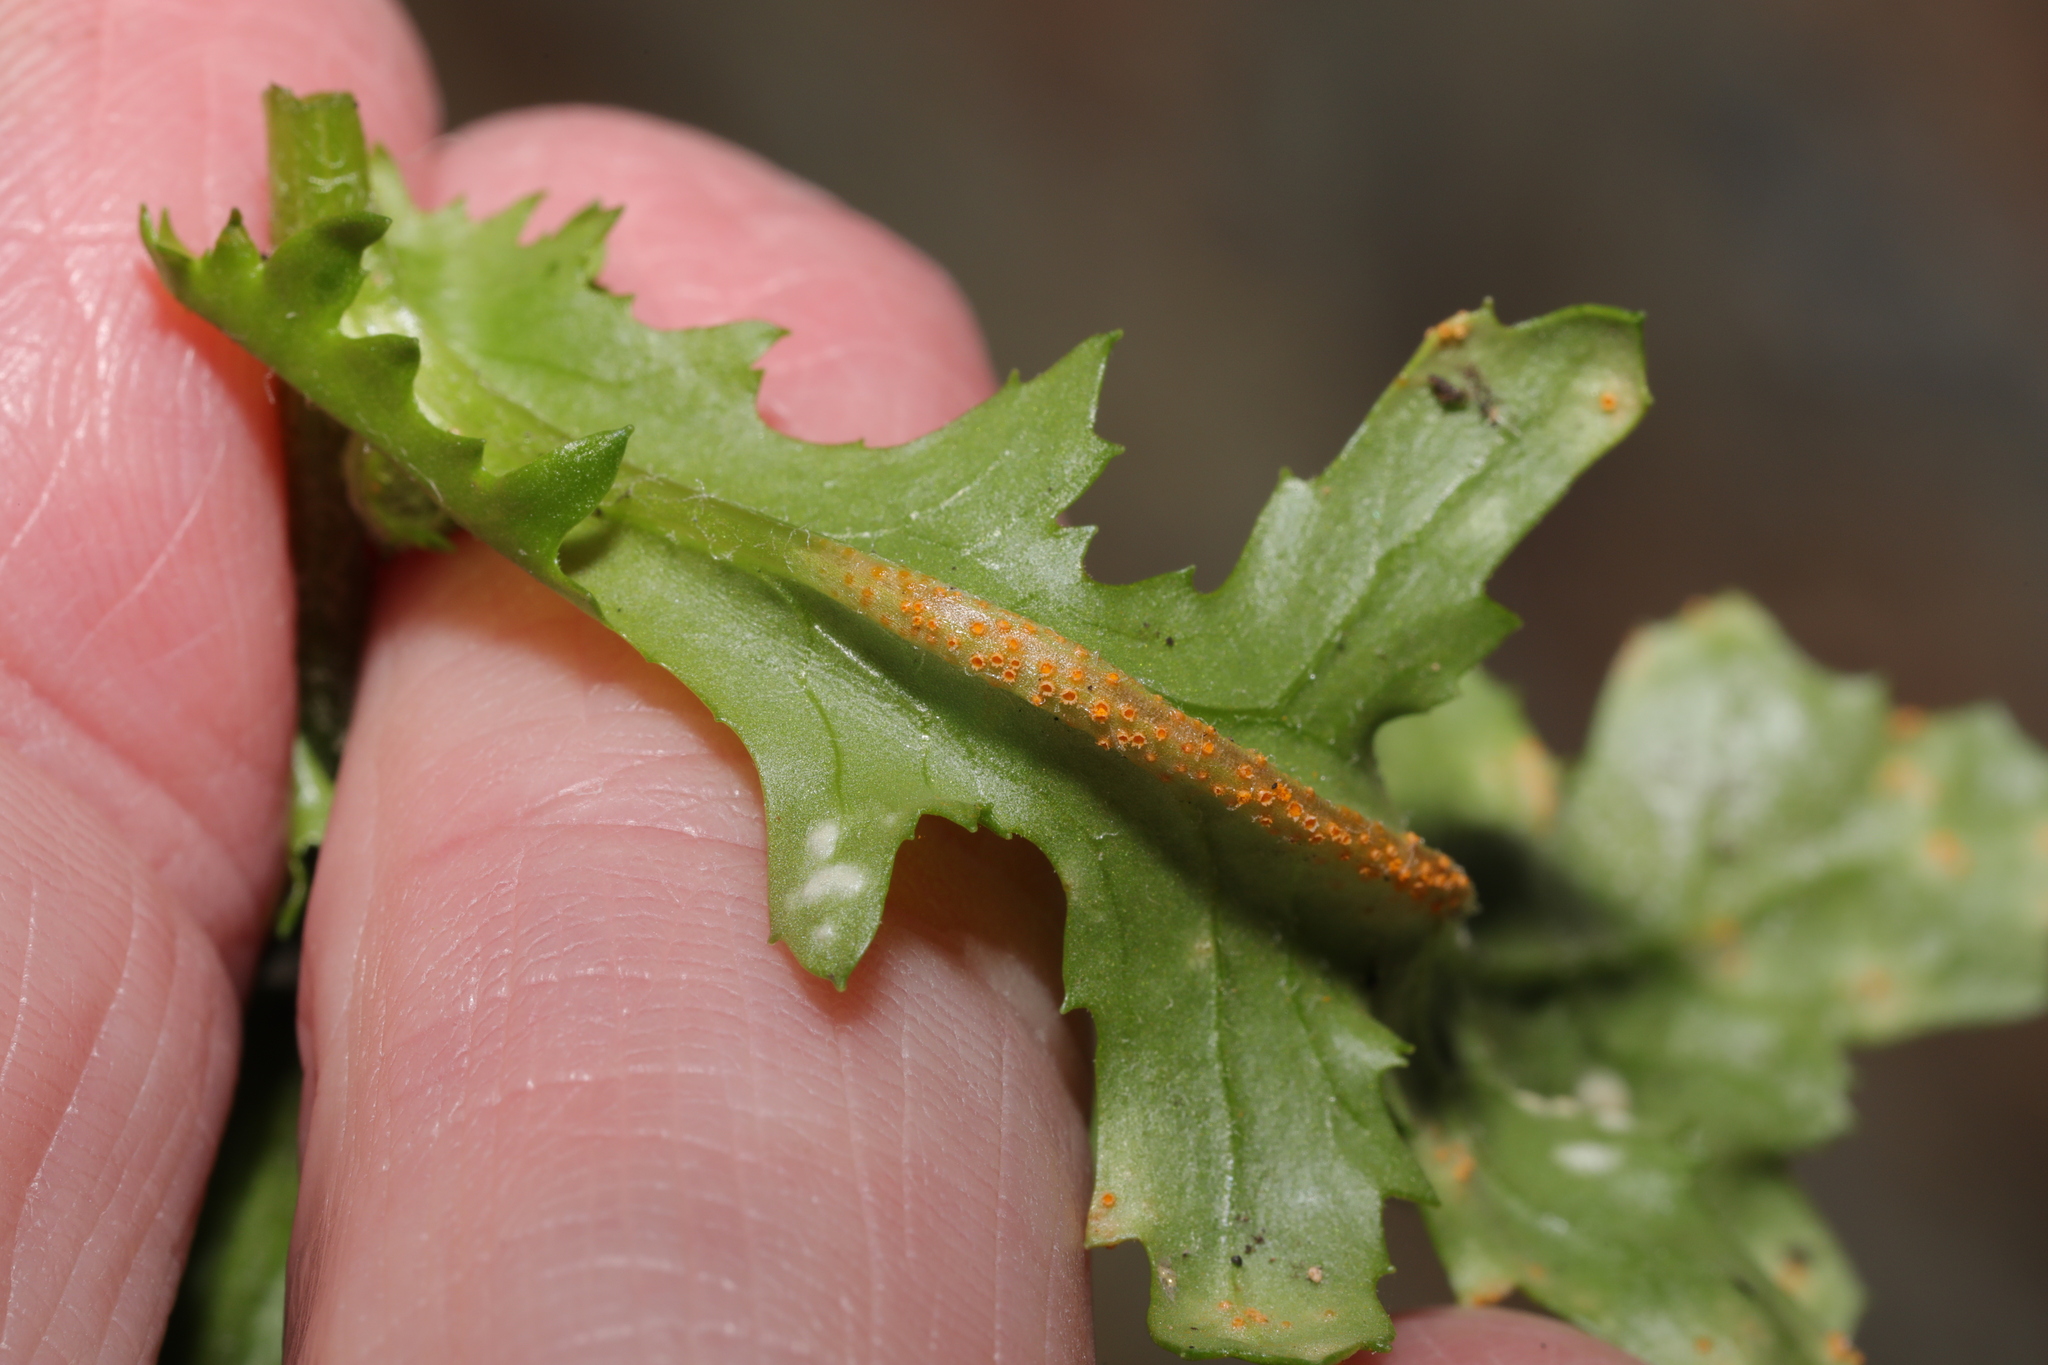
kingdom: Fungi
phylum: Basidiomycota
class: Pucciniomycetes
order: Pucciniales
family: Pucciniaceae
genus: Puccinia
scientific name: Puccinia lagenophorae
